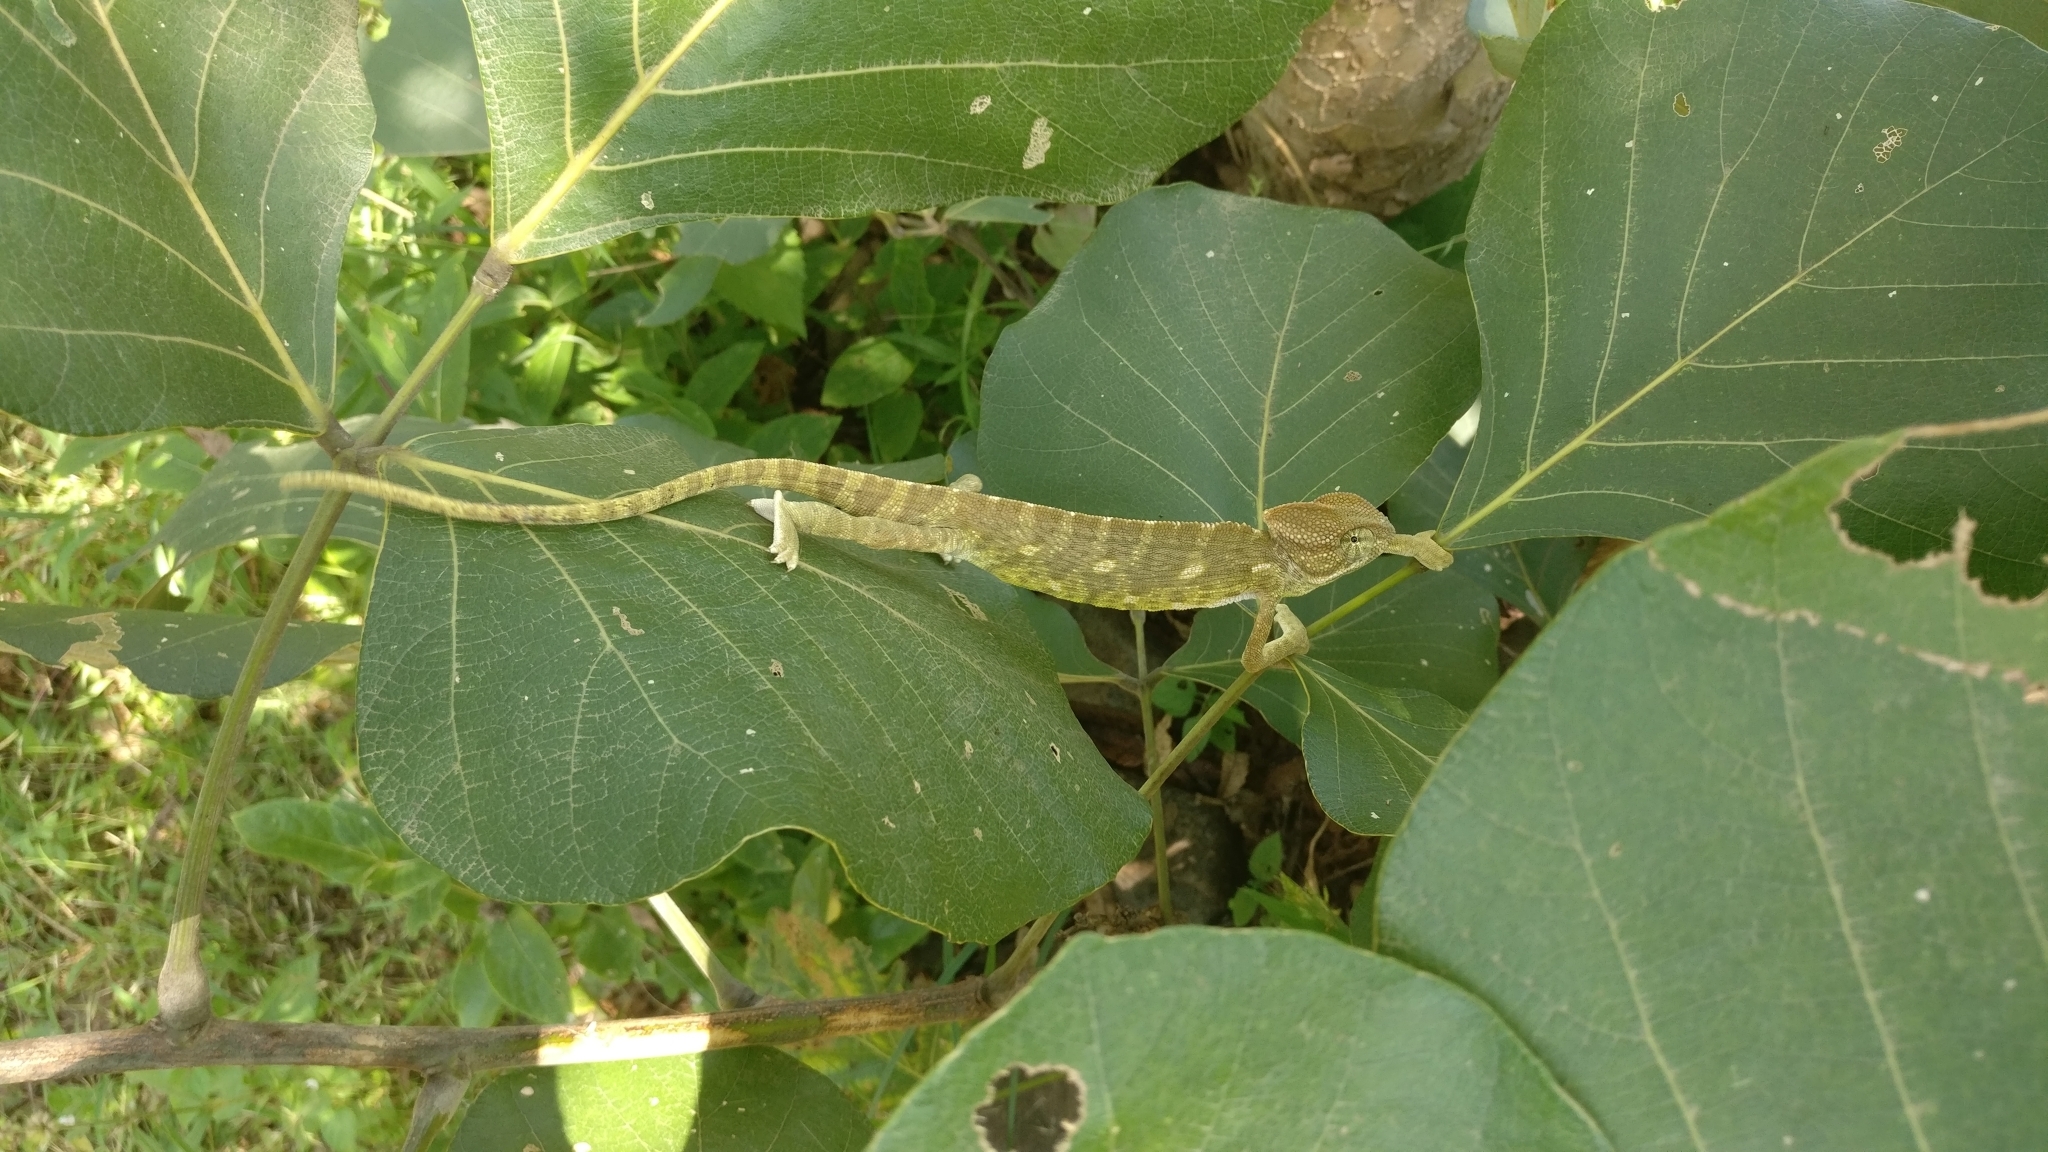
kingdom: Animalia
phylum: Chordata
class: Squamata
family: Chamaeleonidae
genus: Chamaeleo
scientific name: Chamaeleo zeylanicus
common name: Indian chameleon
